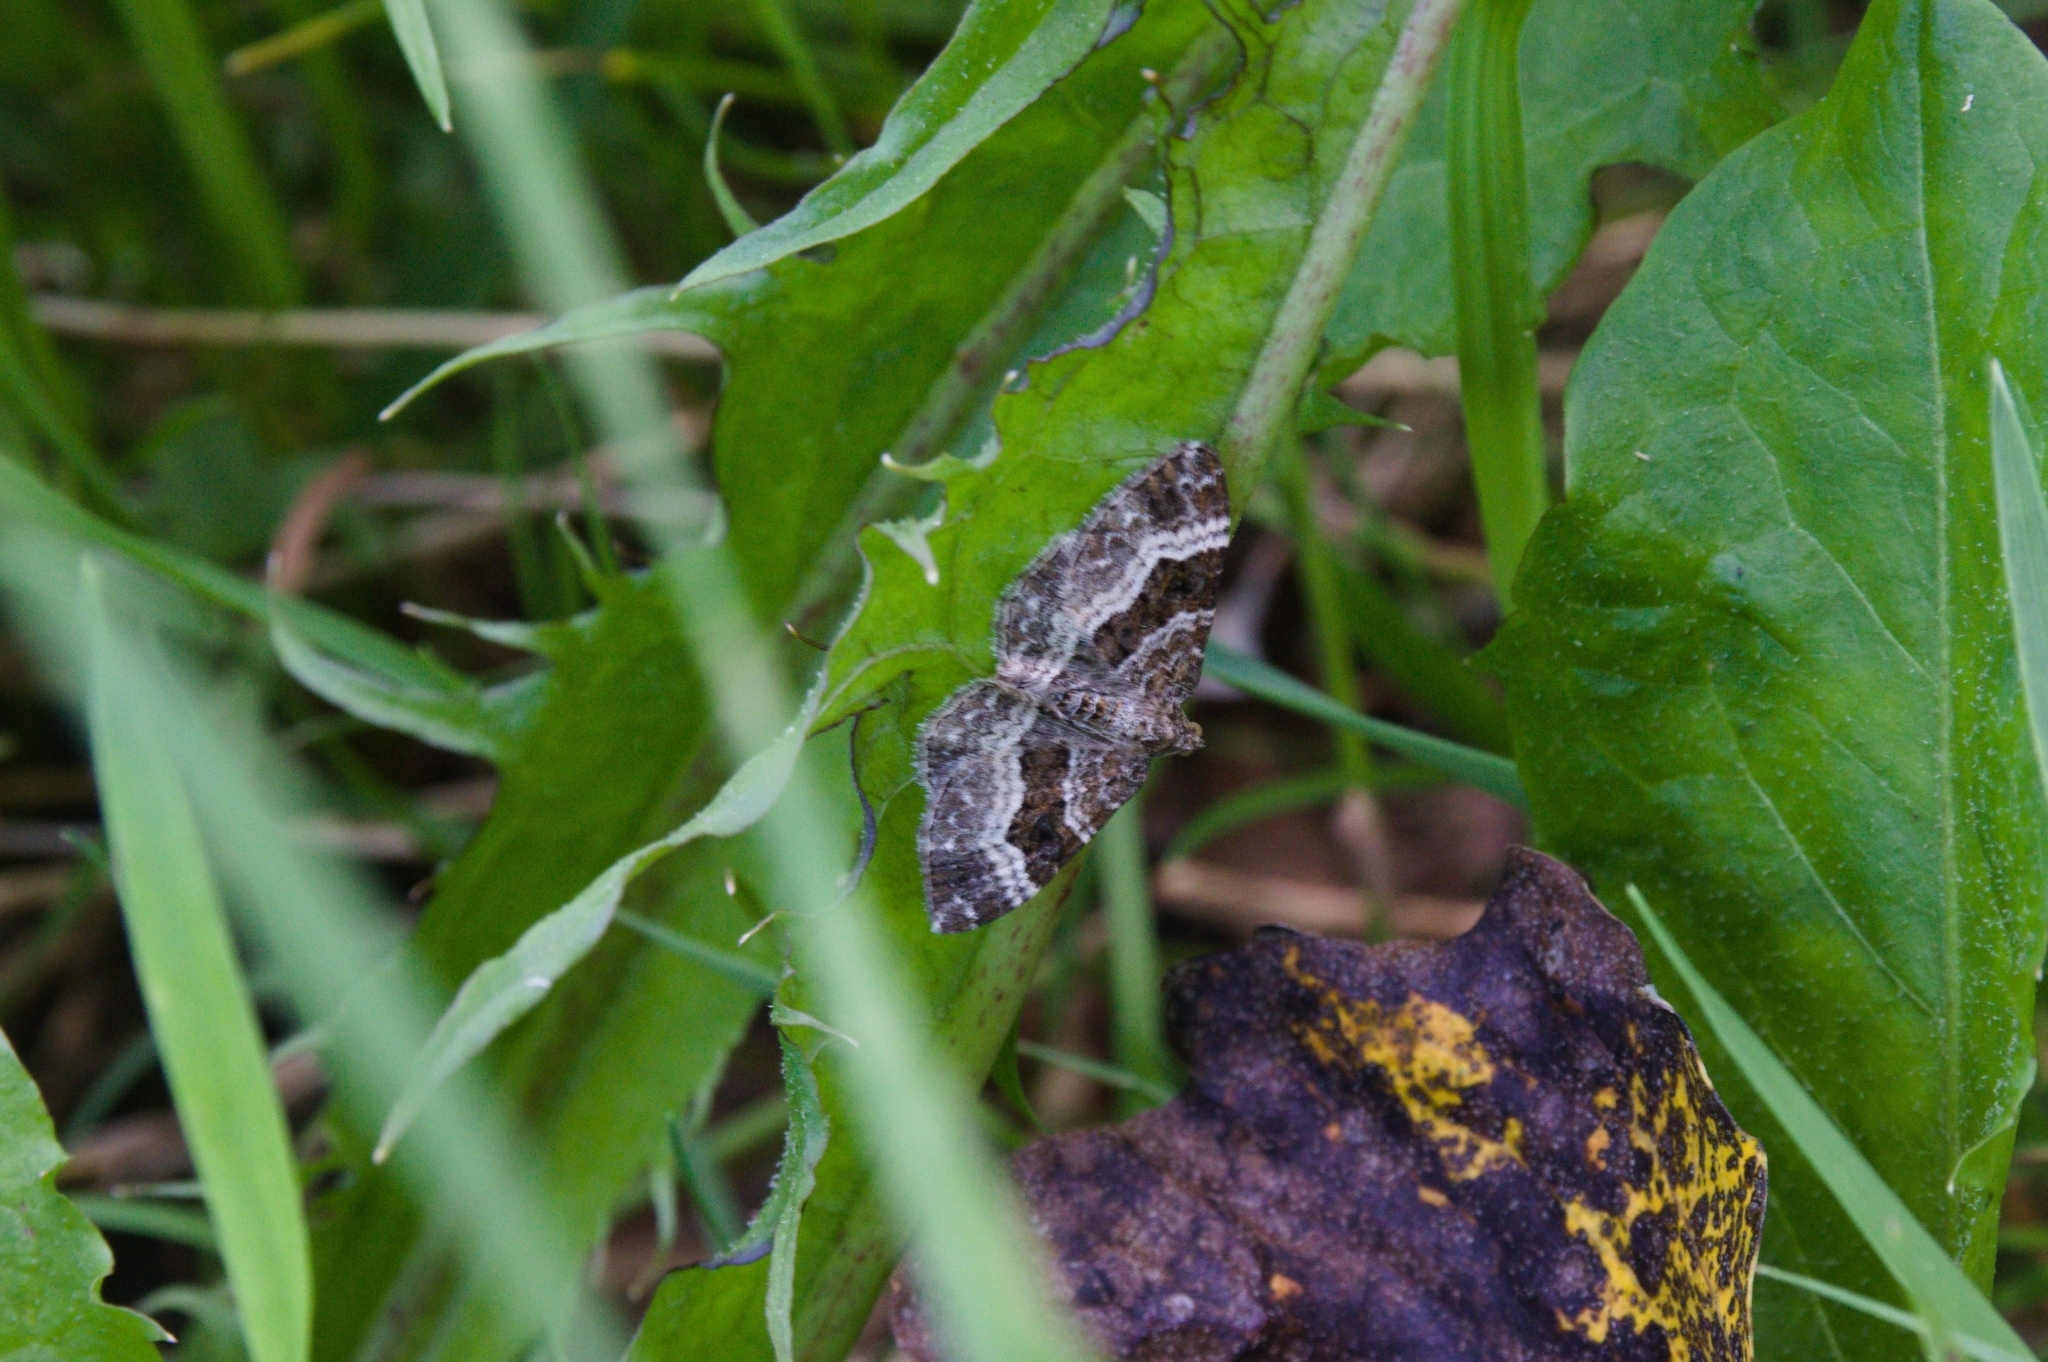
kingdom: Animalia
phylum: Arthropoda
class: Insecta
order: Lepidoptera
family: Geometridae
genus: Epirrhoe
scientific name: Epirrhoe alternata
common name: Common carpet
